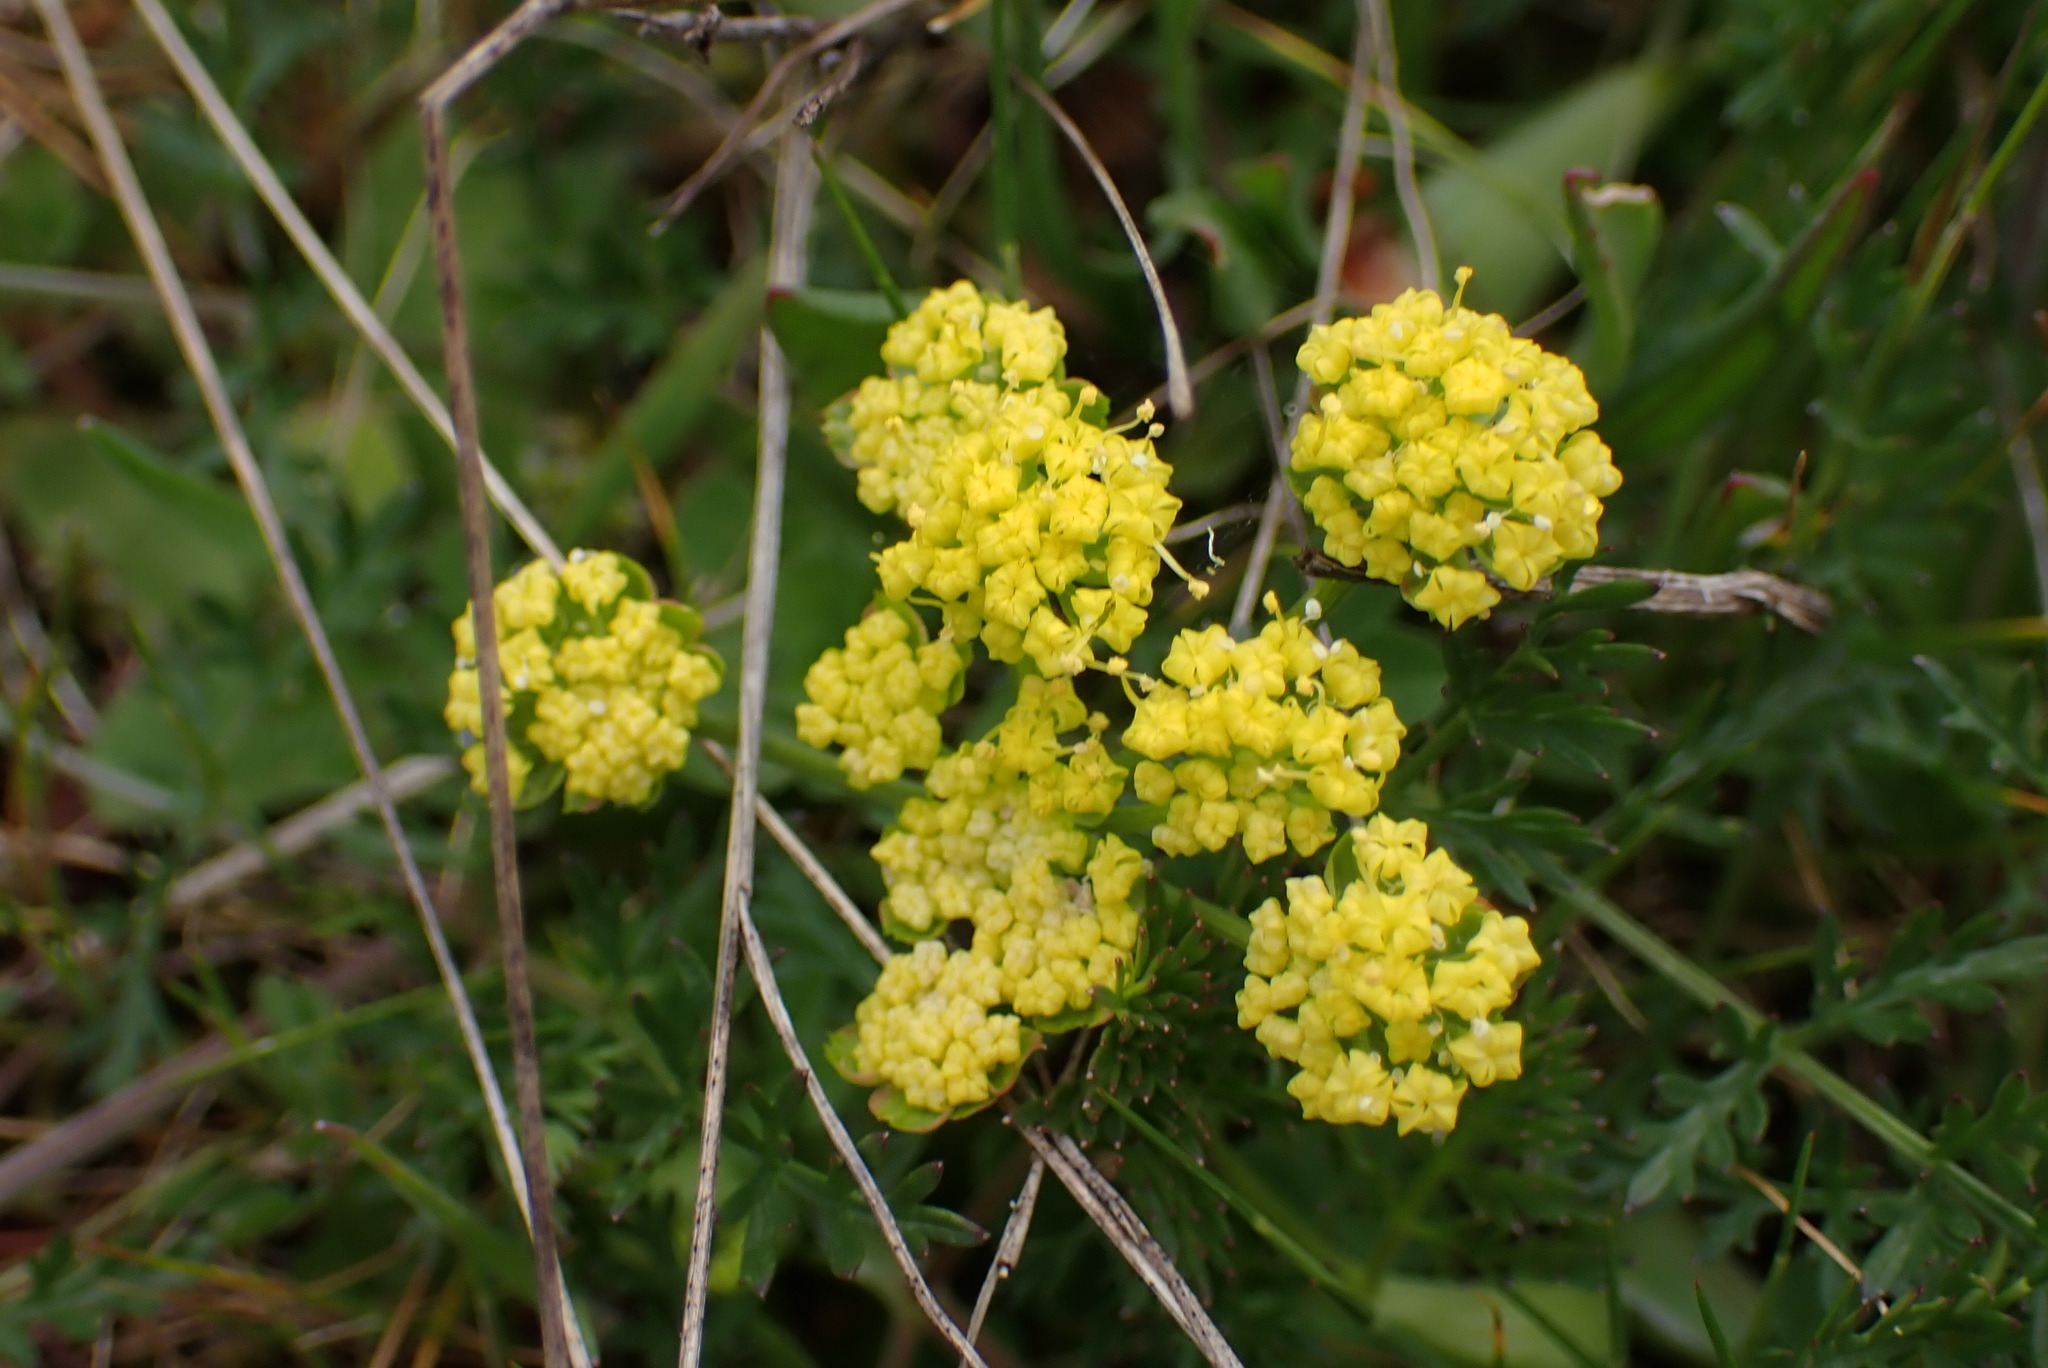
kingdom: Plantae
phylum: Tracheophyta
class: Magnoliopsida
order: Apiales
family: Apiaceae
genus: Lomatium
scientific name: Lomatium utriculatum
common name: Fine-leaf desert-parsley
